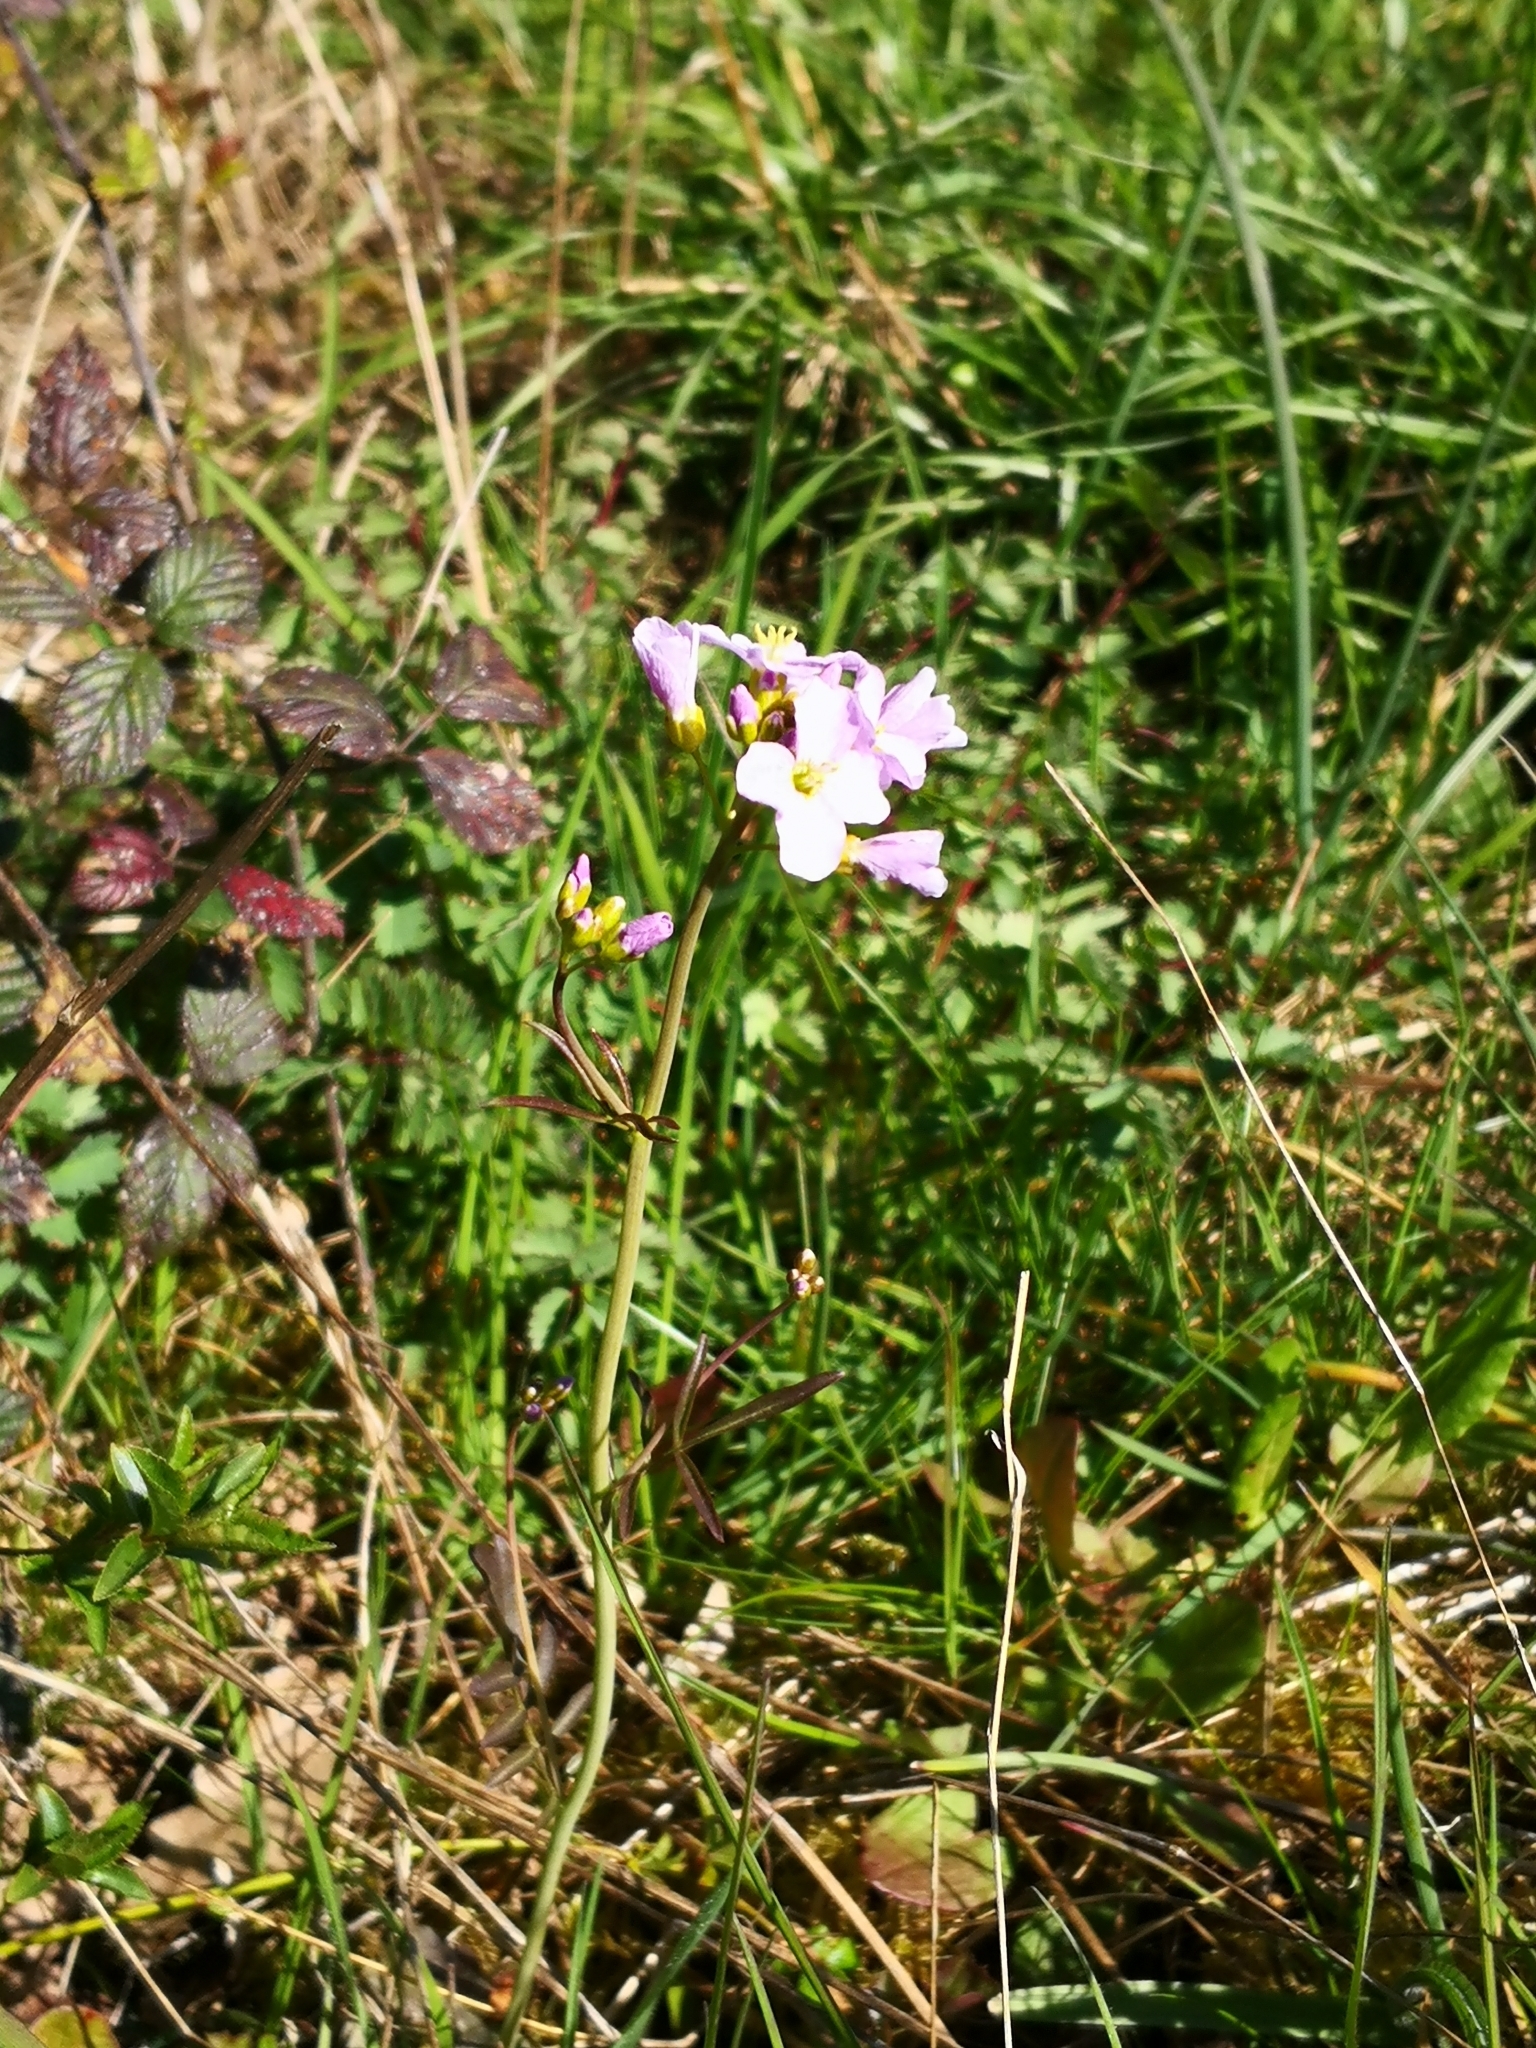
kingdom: Plantae
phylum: Tracheophyta
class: Magnoliopsida
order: Brassicales
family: Brassicaceae
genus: Cardamine
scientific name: Cardamine pratensis
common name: Cuckoo flower
